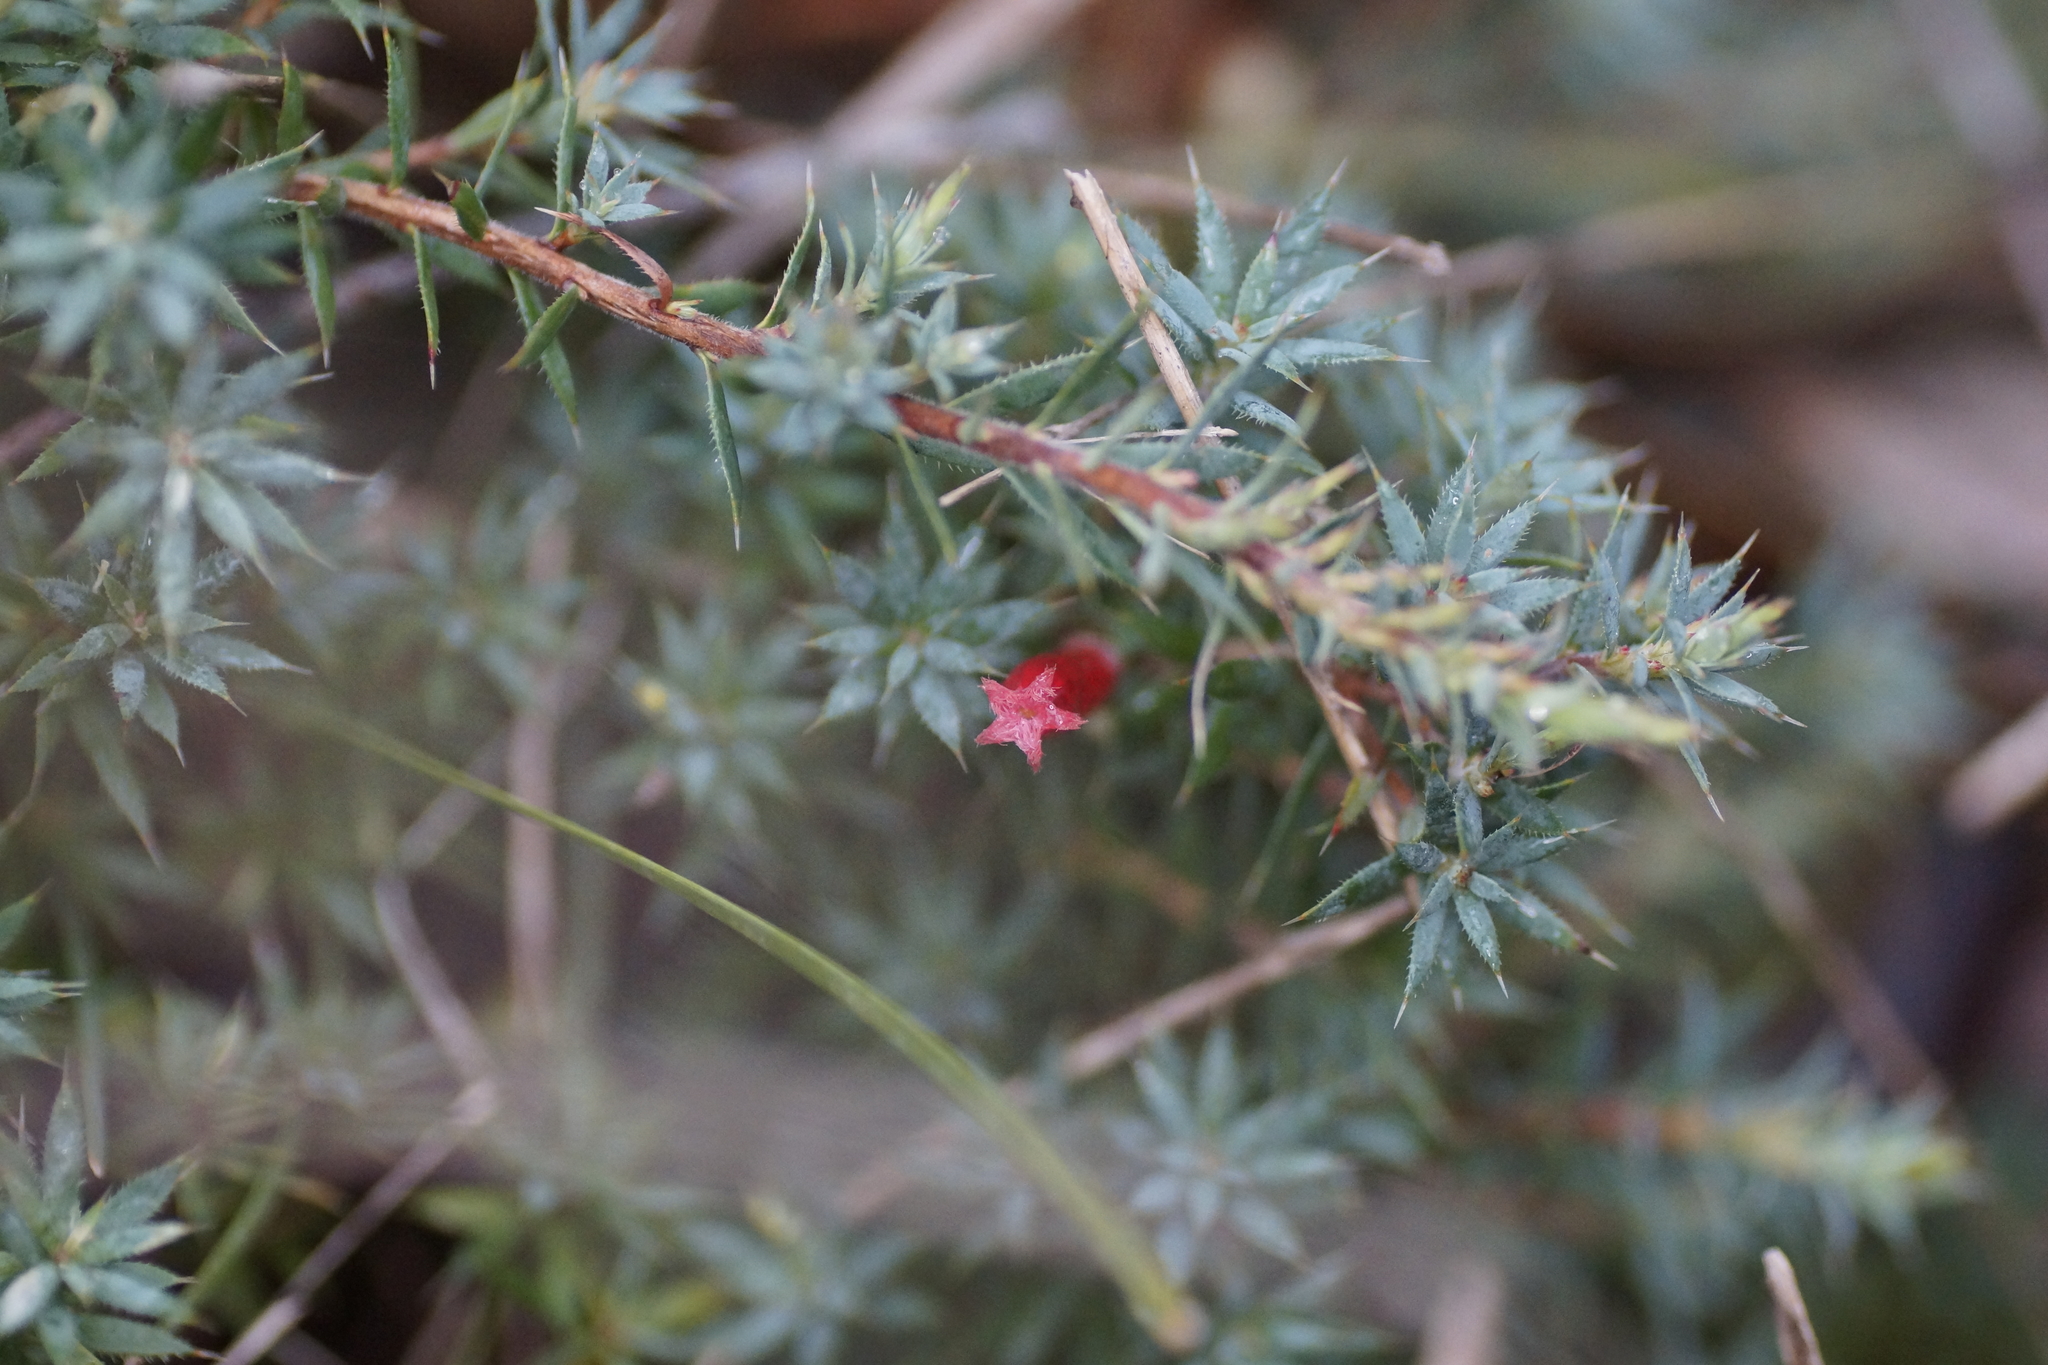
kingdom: Plantae
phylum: Tracheophyta
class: Magnoliopsida
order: Ericales
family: Ericaceae
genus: Styphelia
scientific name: Styphelia humifusa
